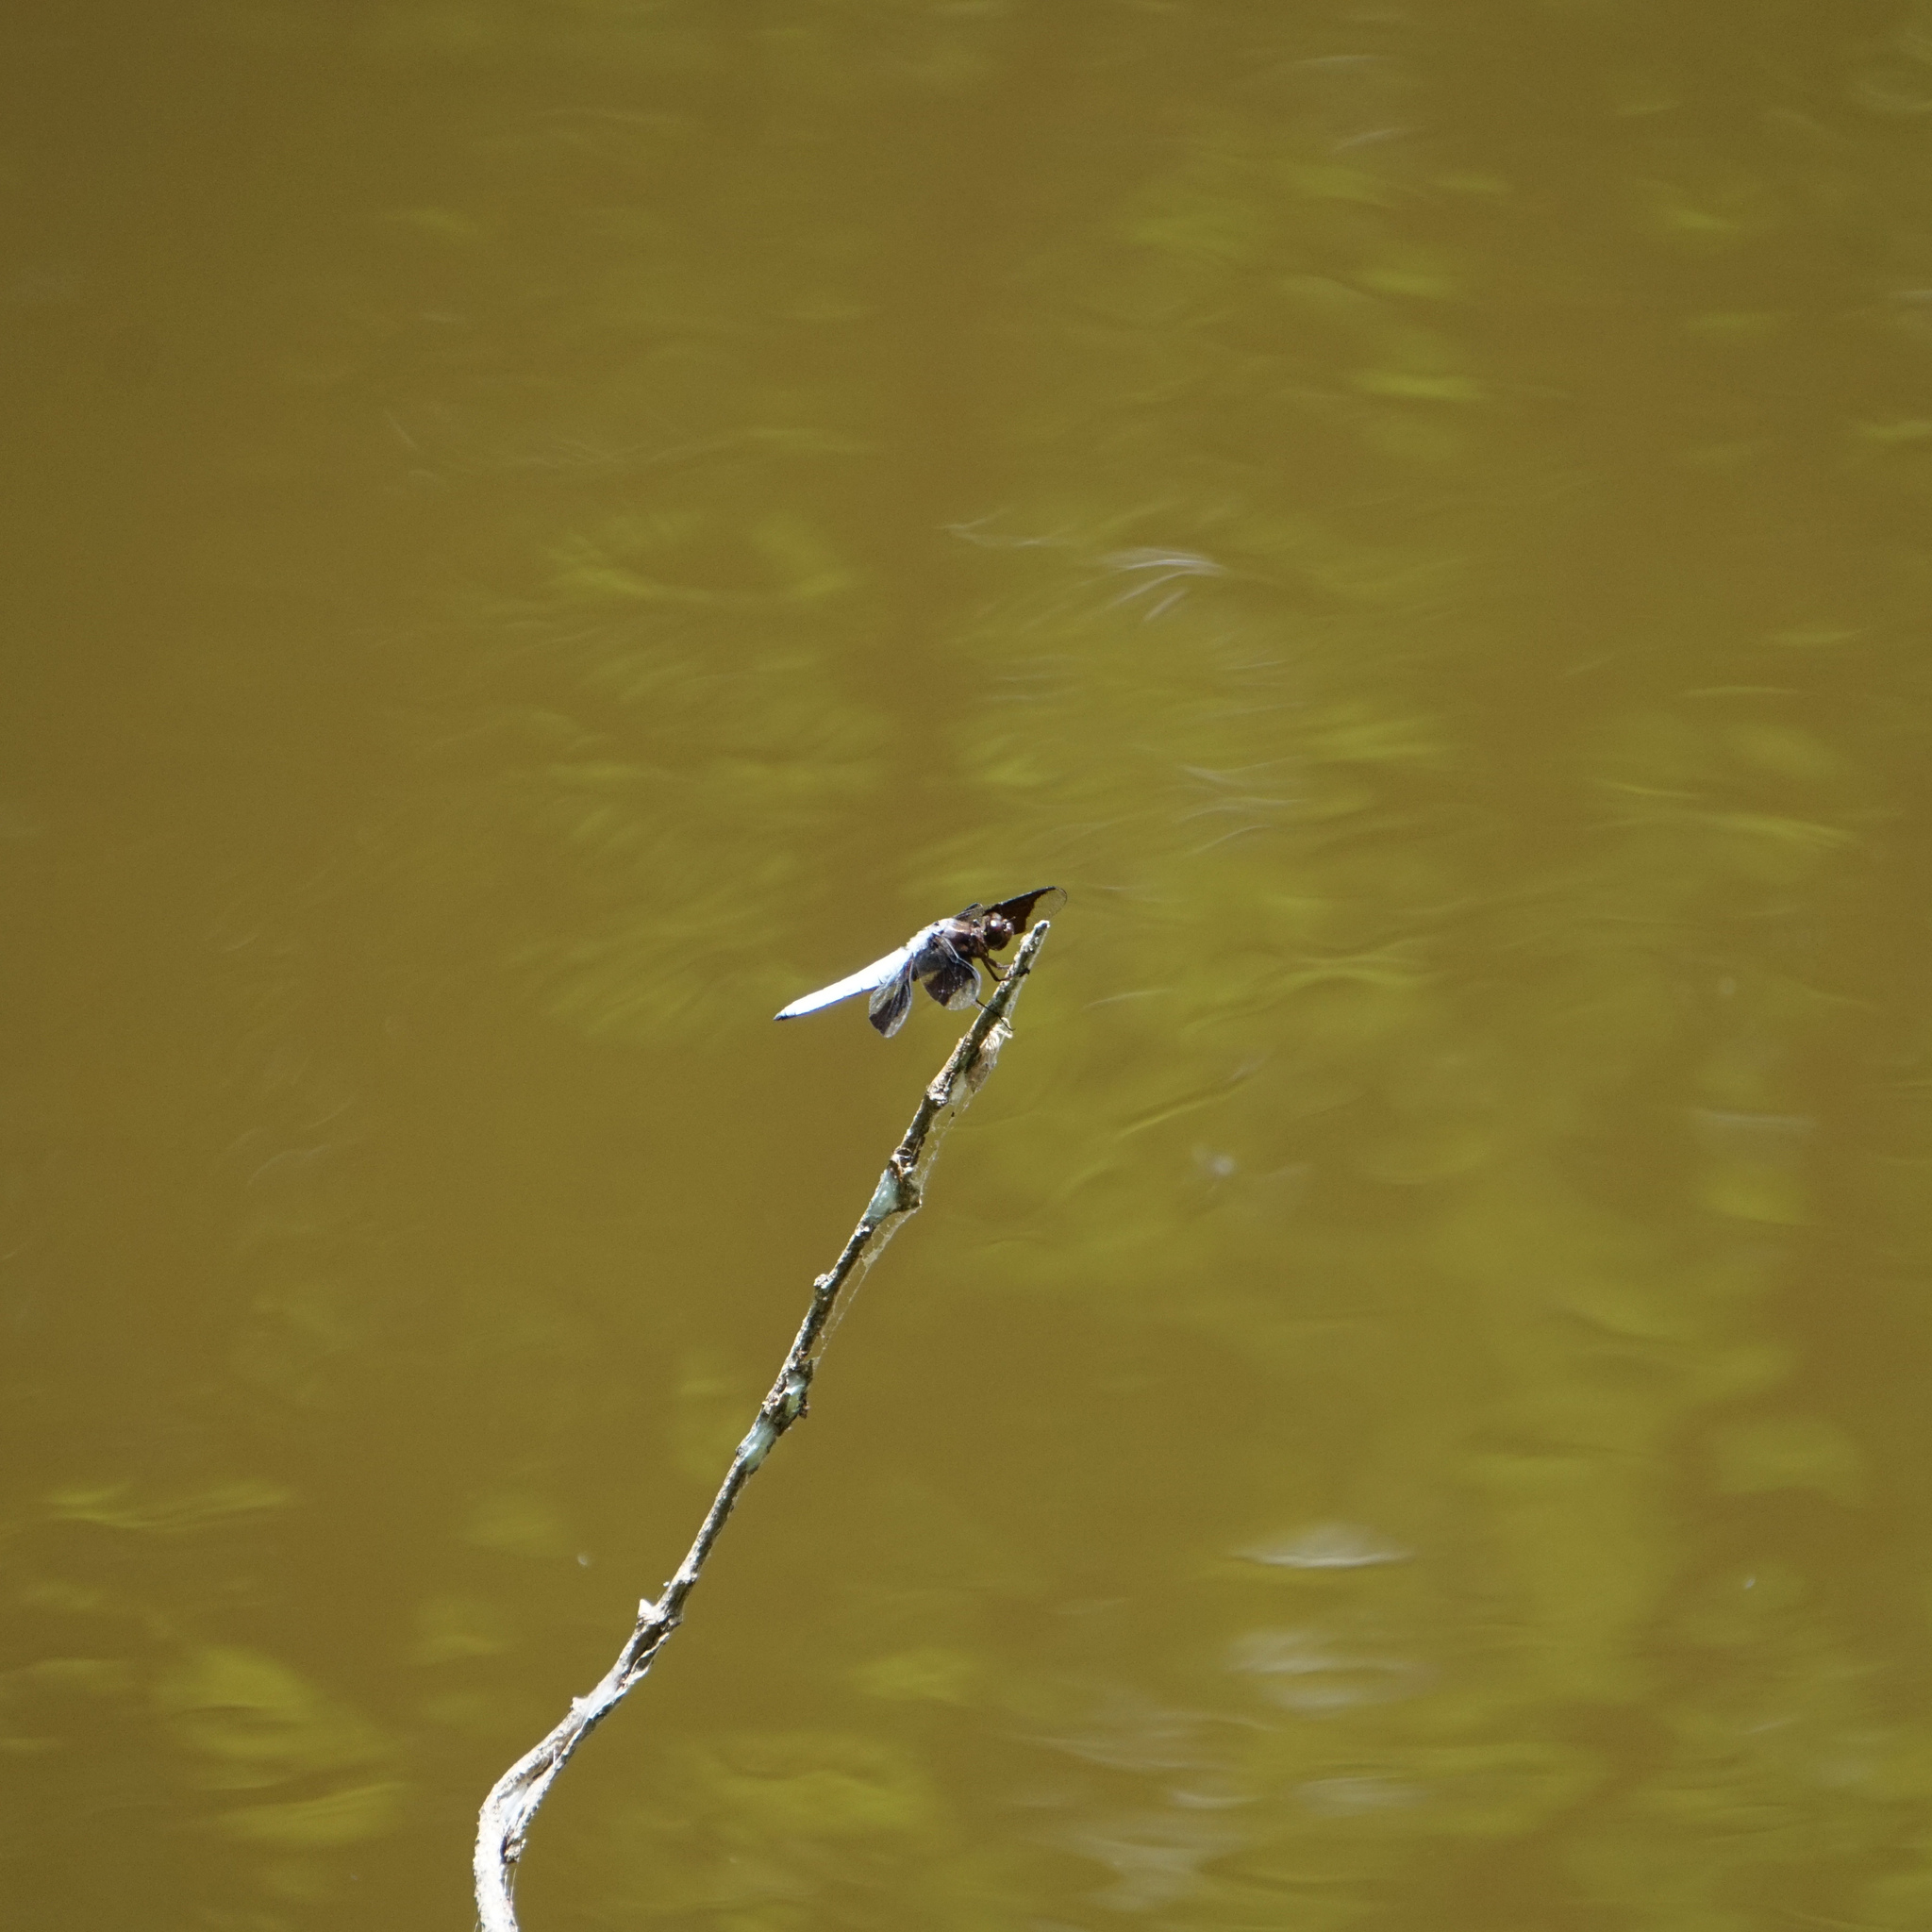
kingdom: Animalia
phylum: Arthropoda
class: Insecta
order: Odonata
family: Libellulidae
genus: Plathemis
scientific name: Plathemis lydia
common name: Common whitetail
